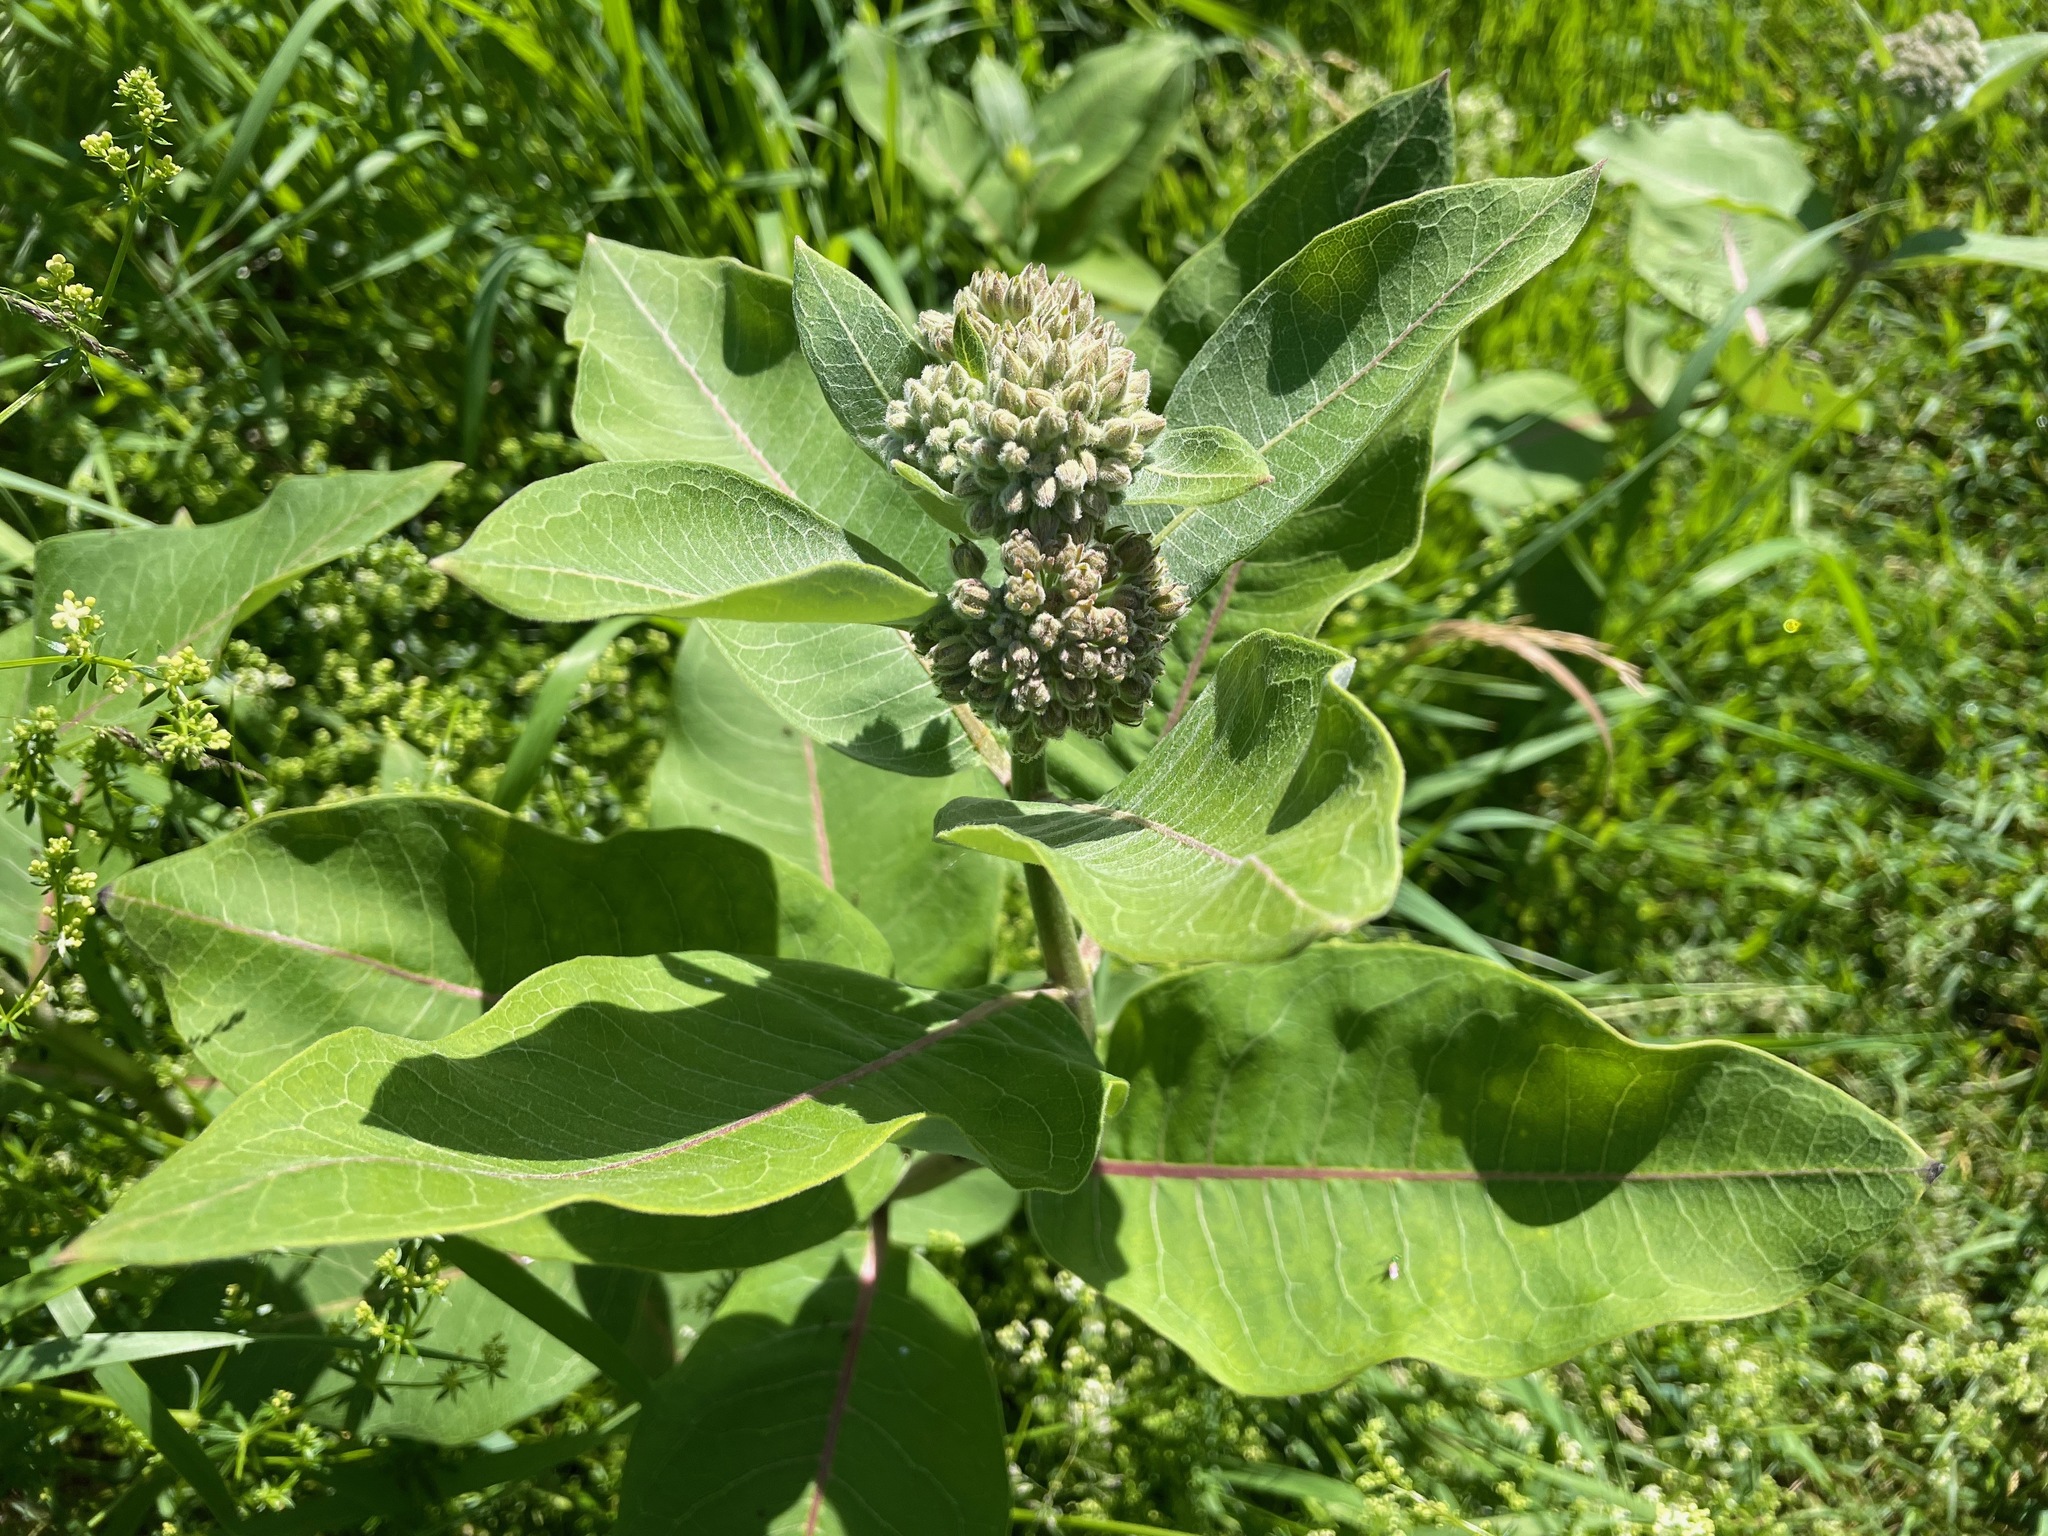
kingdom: Plantae
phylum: Tracheophyta
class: Magnoliopsida
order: Gentianales
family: Apocynaceae
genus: Asclepias
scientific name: Asclepias syriaca
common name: Common milkweed
